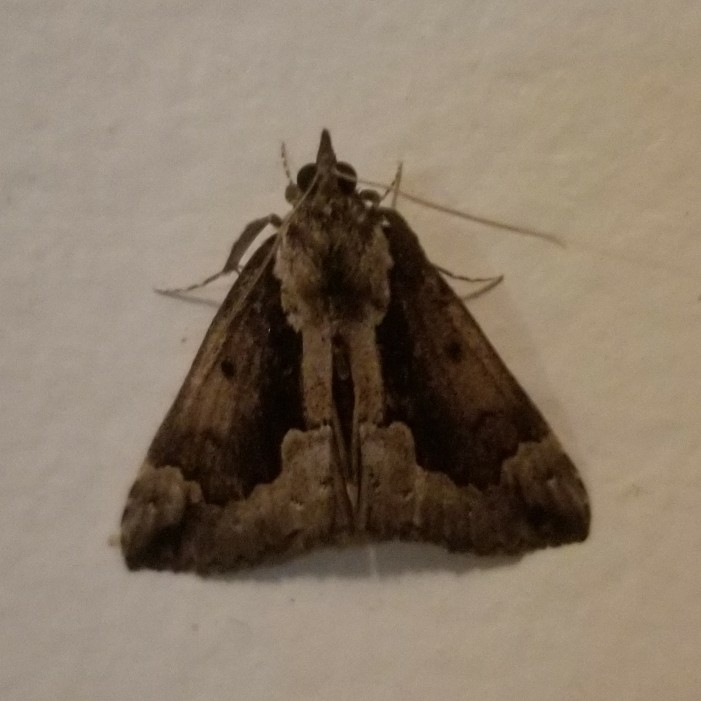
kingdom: Animalia
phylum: Arthropoda
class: Insecta
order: Lepidoptera
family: Erebidae
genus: Hypena
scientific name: Hypena baltimoralis
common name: Baltimore snout
